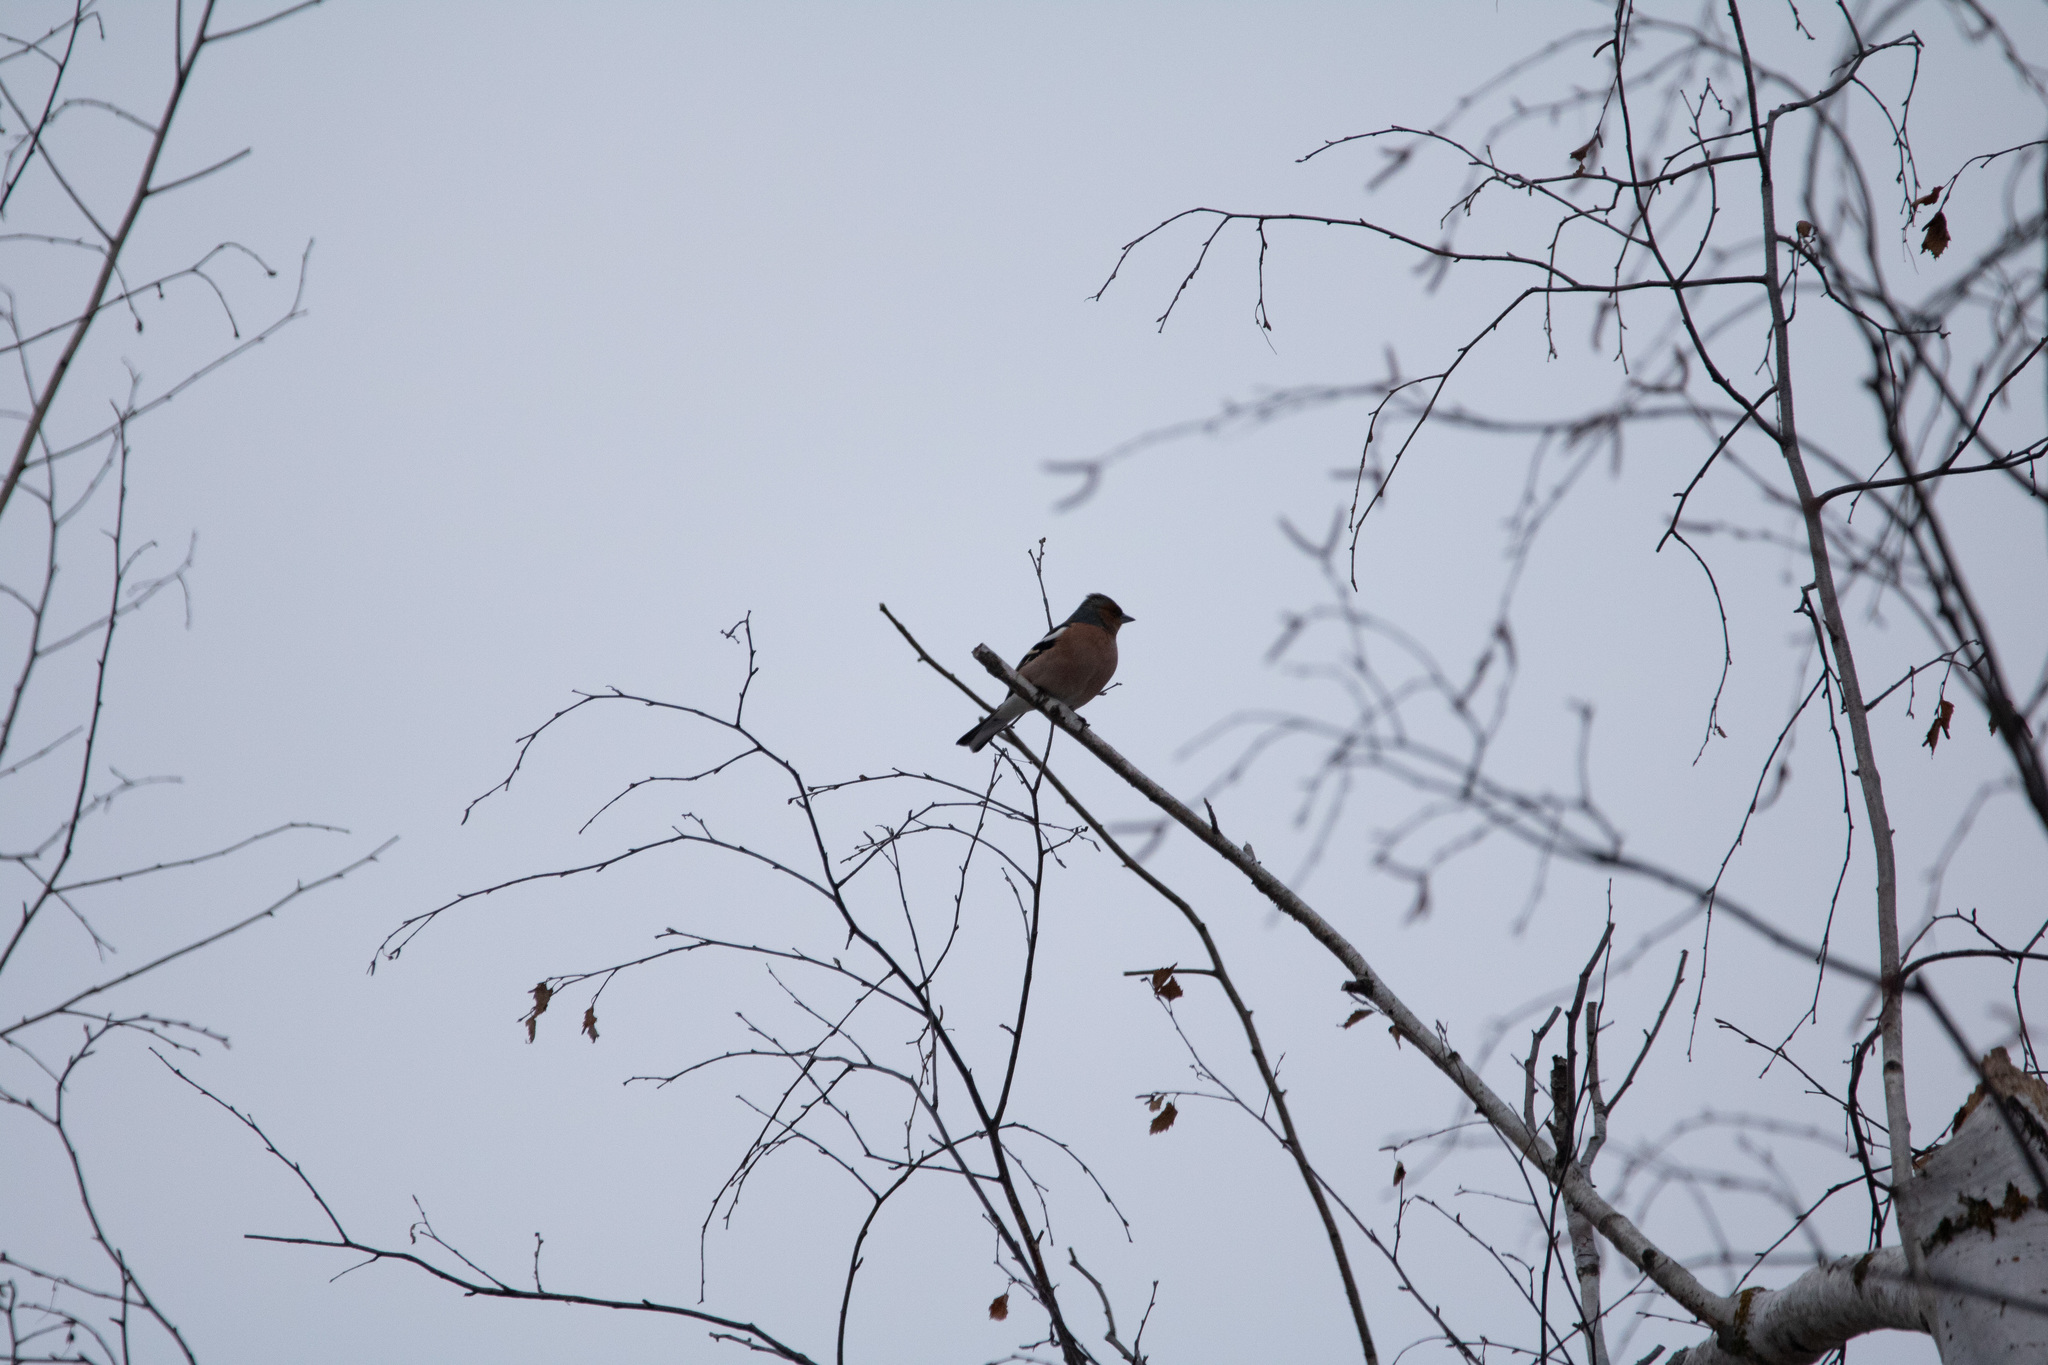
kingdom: Animalia
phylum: Chordata
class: Aves
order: Passeriformes
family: Fringillidae
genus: Fringilla
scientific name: Fringilla coelebs
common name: Common chaffinch
